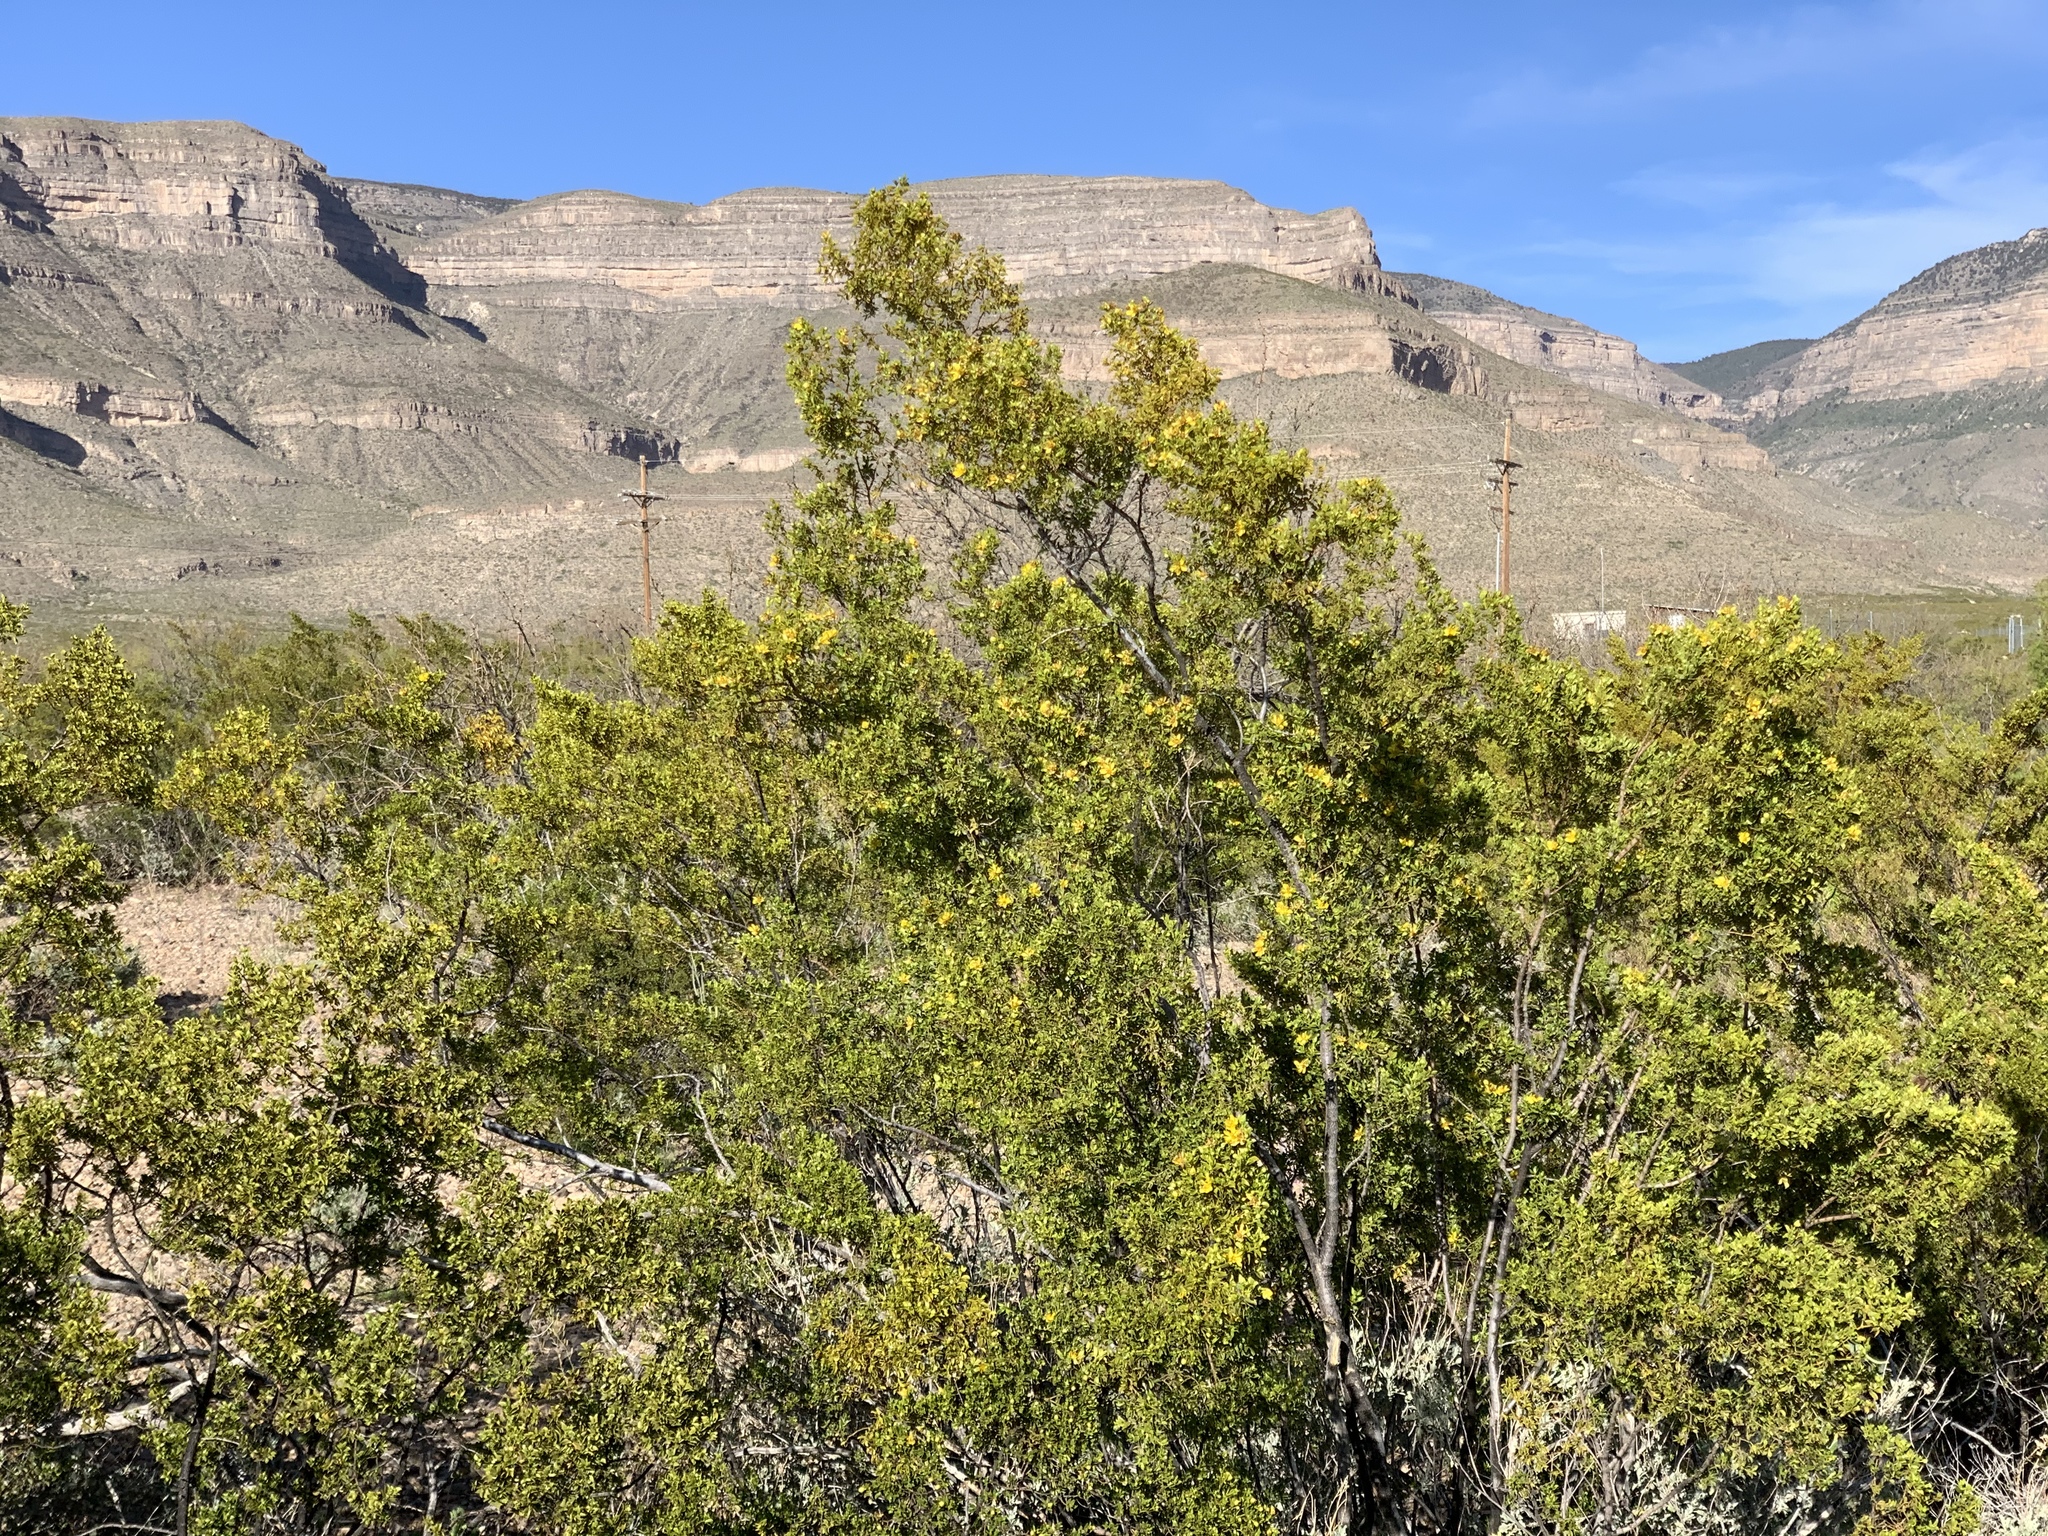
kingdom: Plantae
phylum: Tracheophyta
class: Magnoliopsida
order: Zygophyllales
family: Zygophyllaceae
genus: Larrea
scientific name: Larrea tridentata
